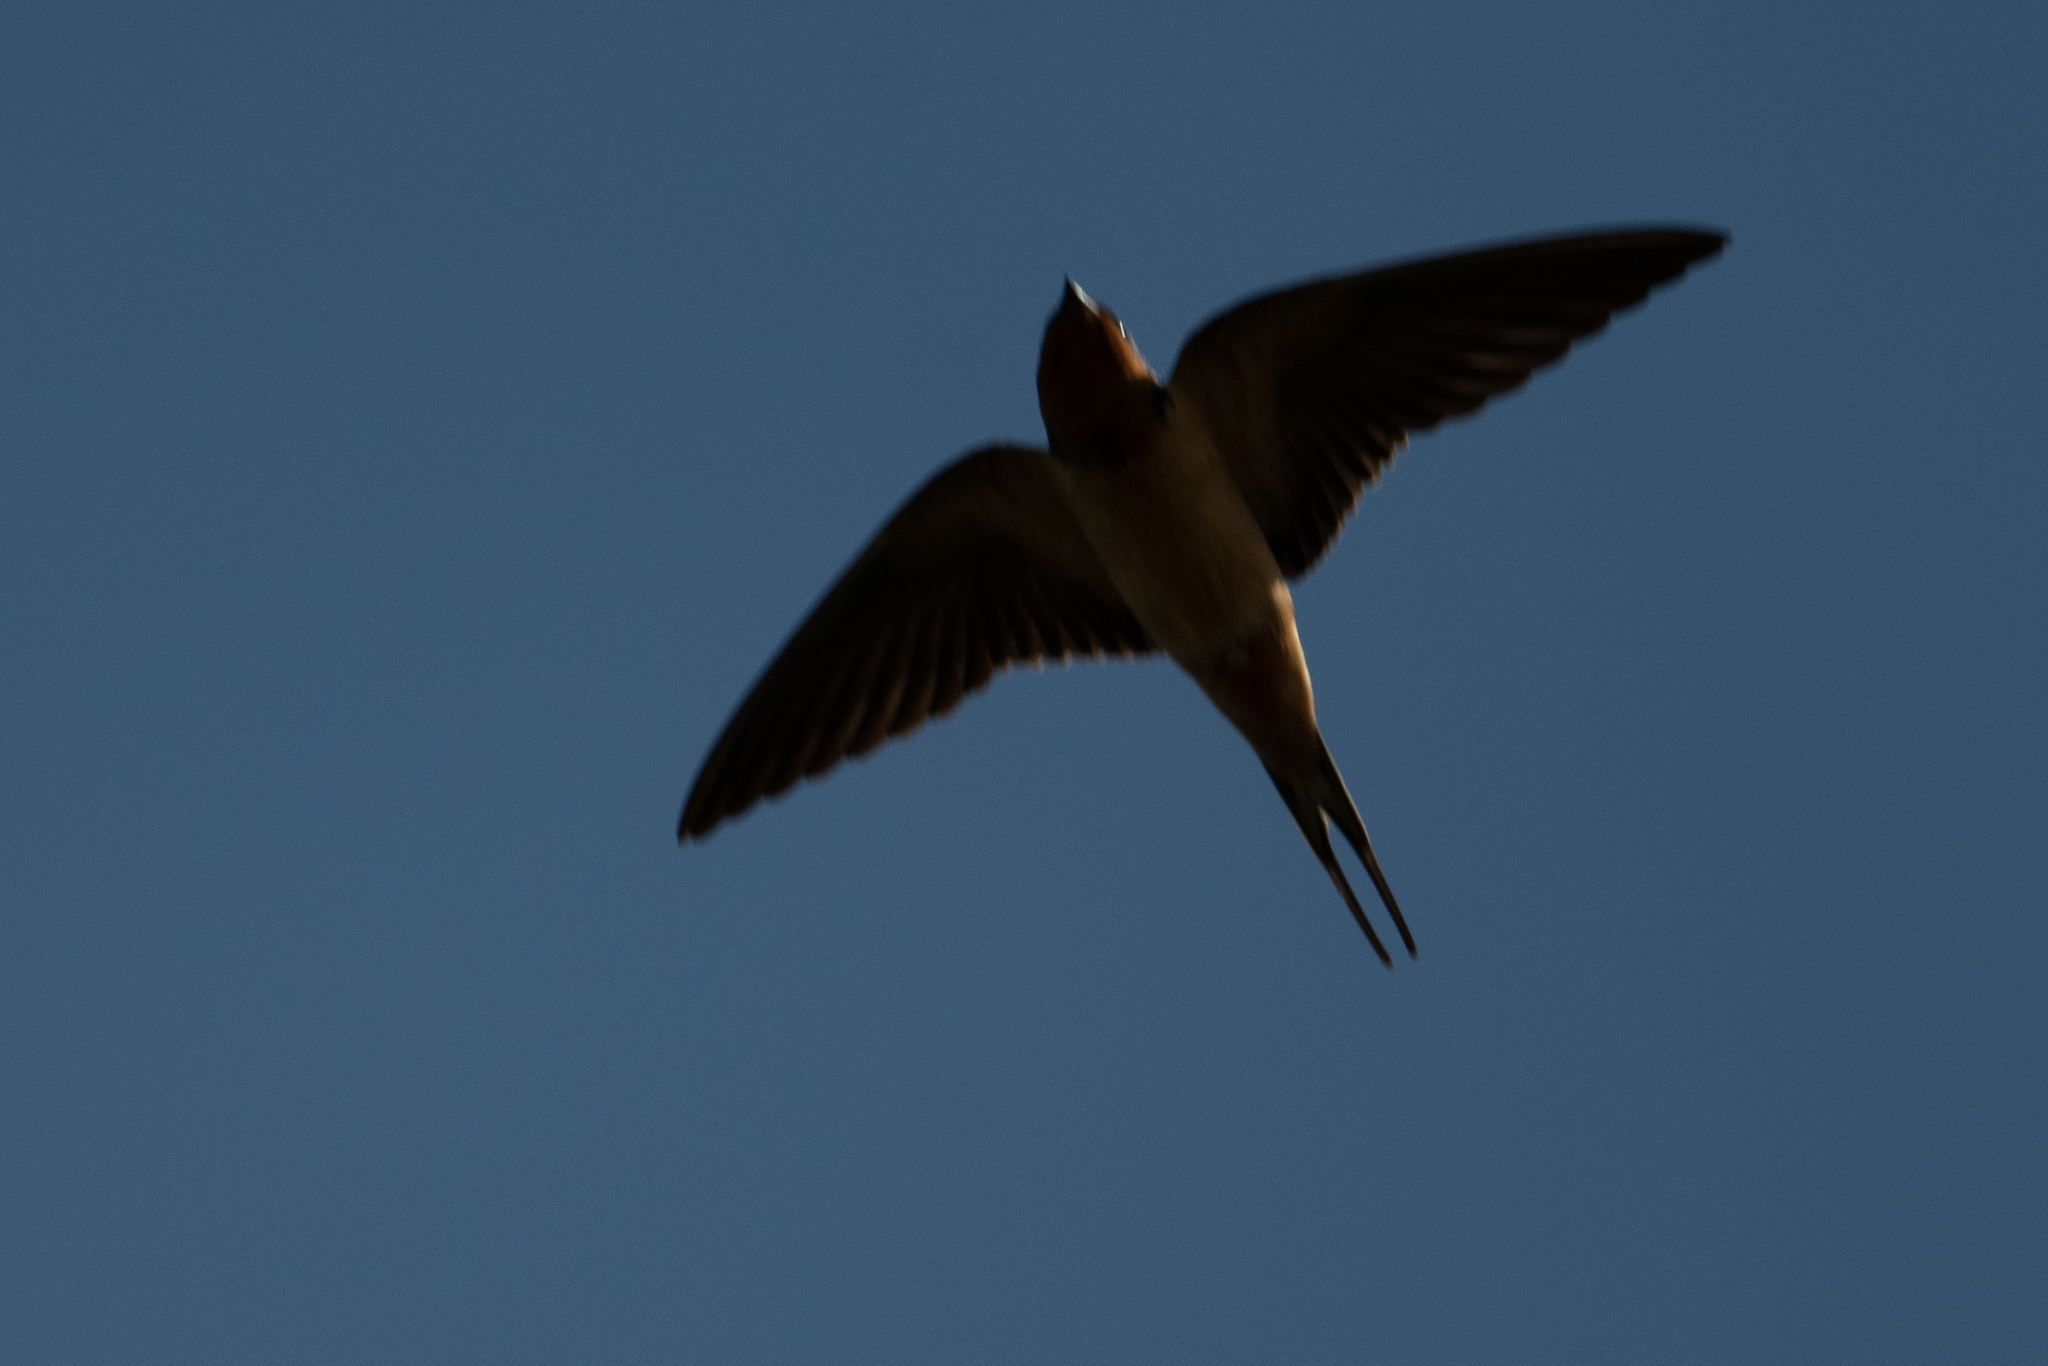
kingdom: Animalia
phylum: Chordata
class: Aves
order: Passeriformes
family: Hirundinidae
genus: Hirundo
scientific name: Hirundo rustica
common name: Barn swallow
